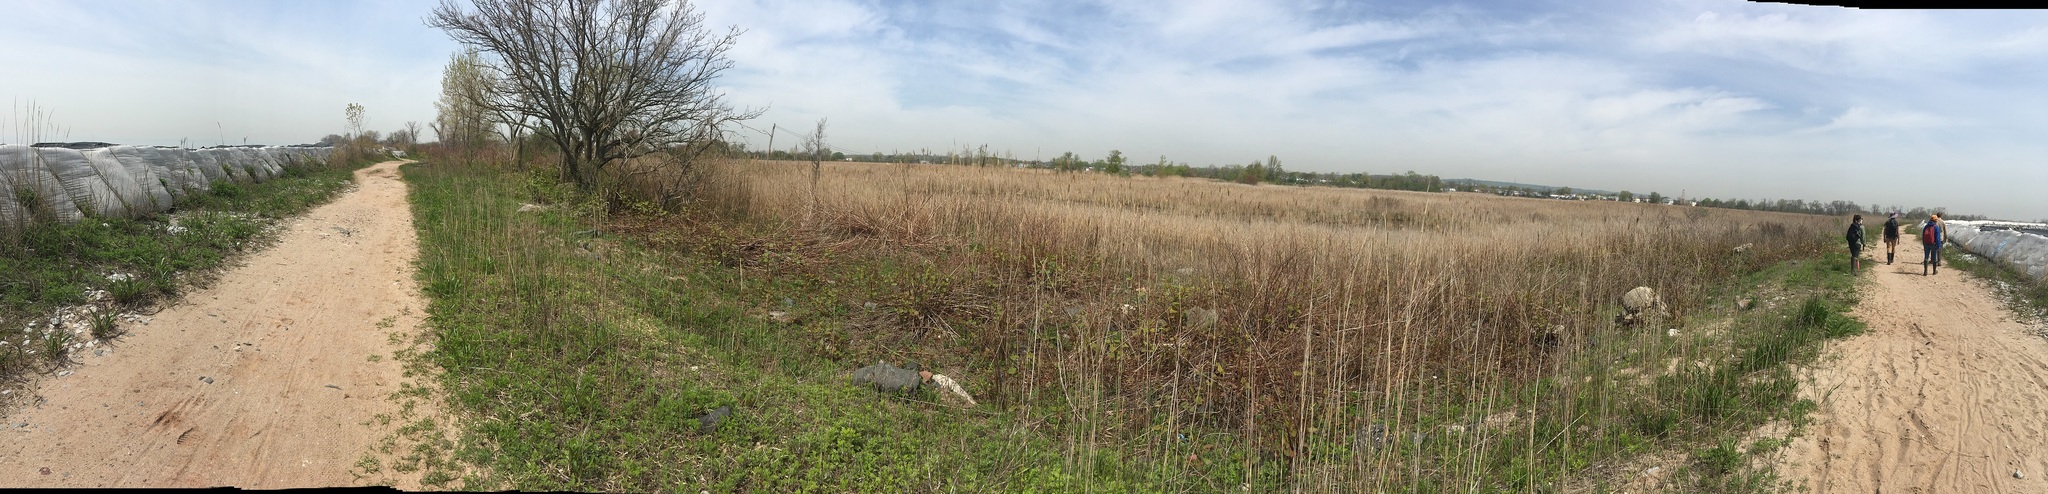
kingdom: Plantae
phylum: Tracheophyta
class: Liliopsida
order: Poales
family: Poaceae
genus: Phragmites
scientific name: Phragmites australis
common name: Common reed
